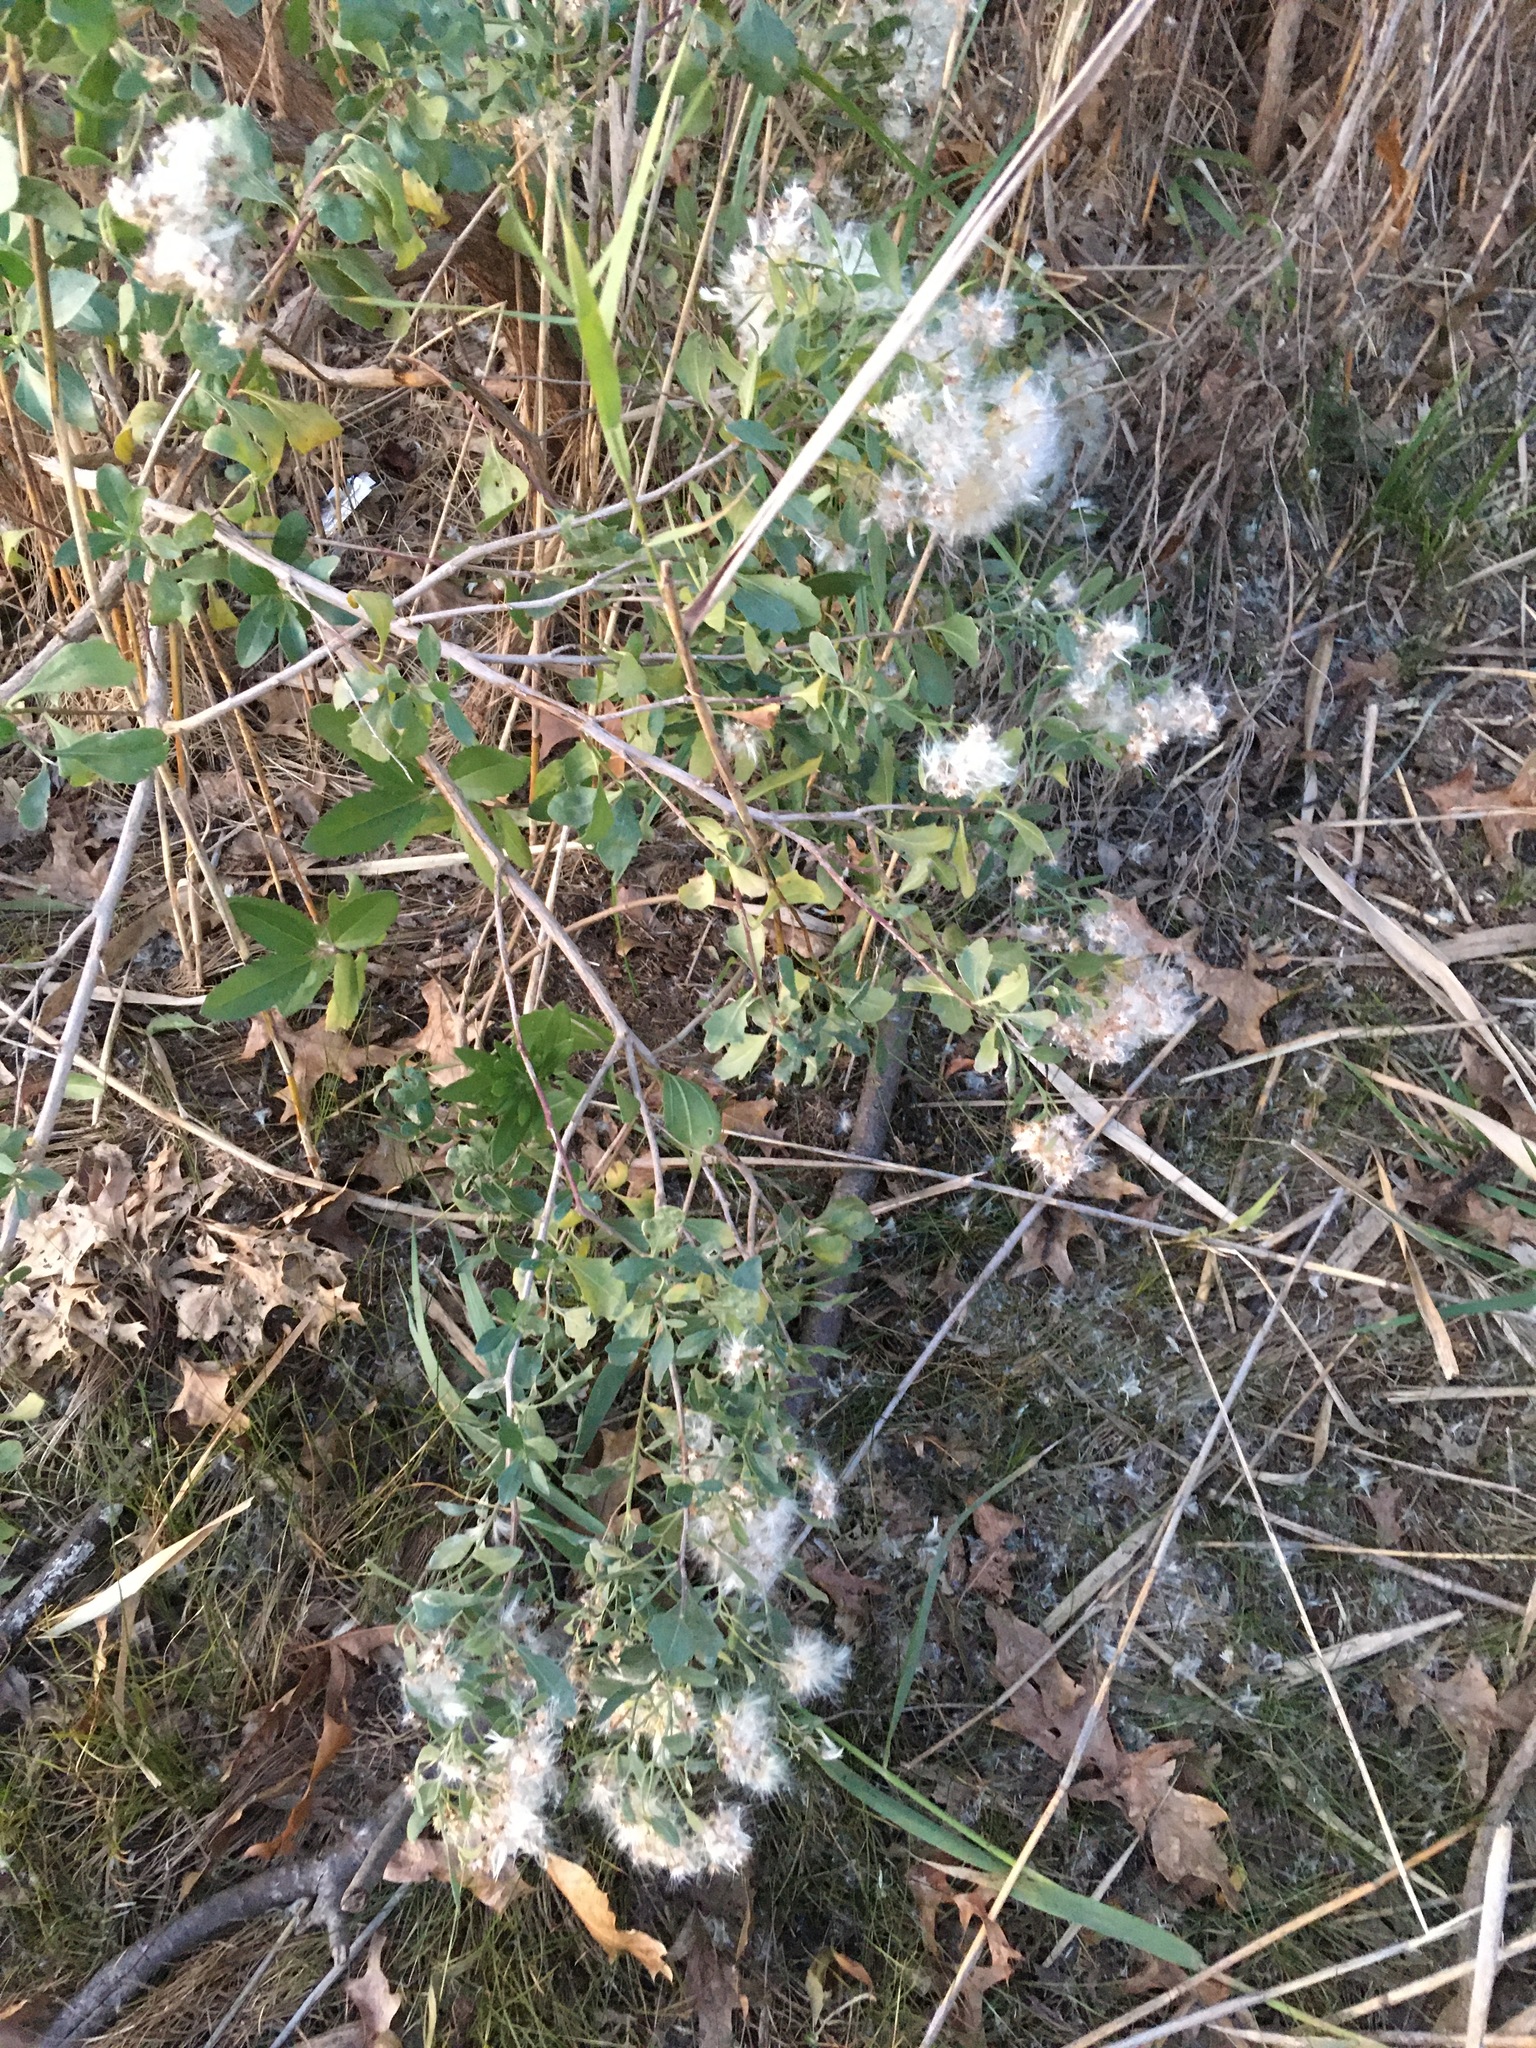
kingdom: Plantae
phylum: Tracheophyta
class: Magnoliopsida
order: Asterales
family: Asteraceae
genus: Baccharis
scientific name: Baccharis halimifolia
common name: Eastern baccharis
